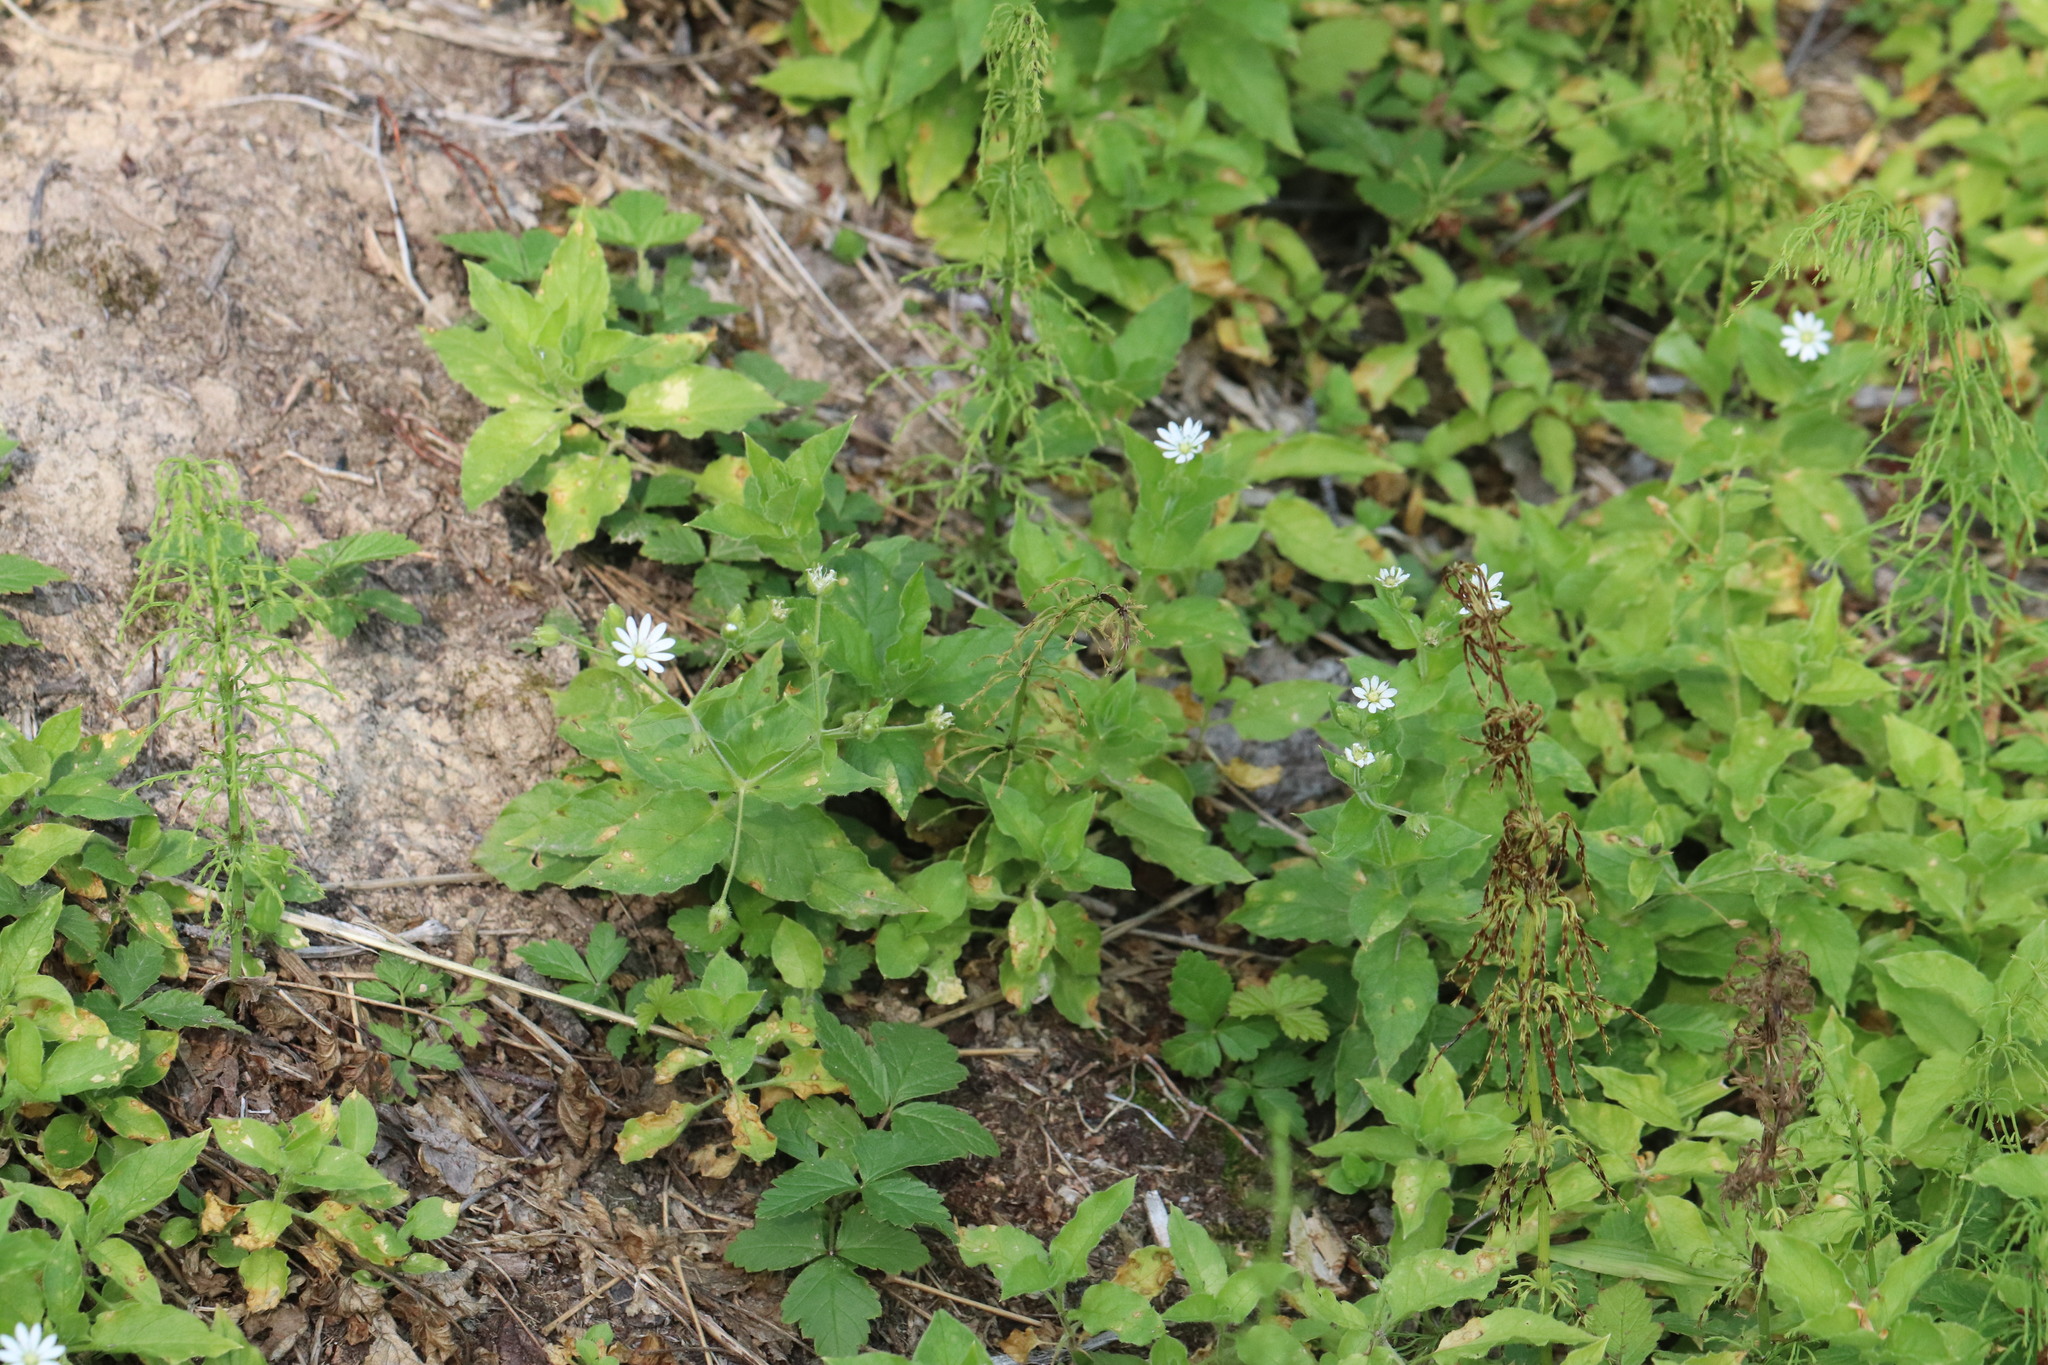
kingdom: Plantae
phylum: Tracheophyta
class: Magnoliopsida
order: Caryophyllales
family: Caryophyllaceae
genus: Stellaria
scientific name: Stellaria bungeana
